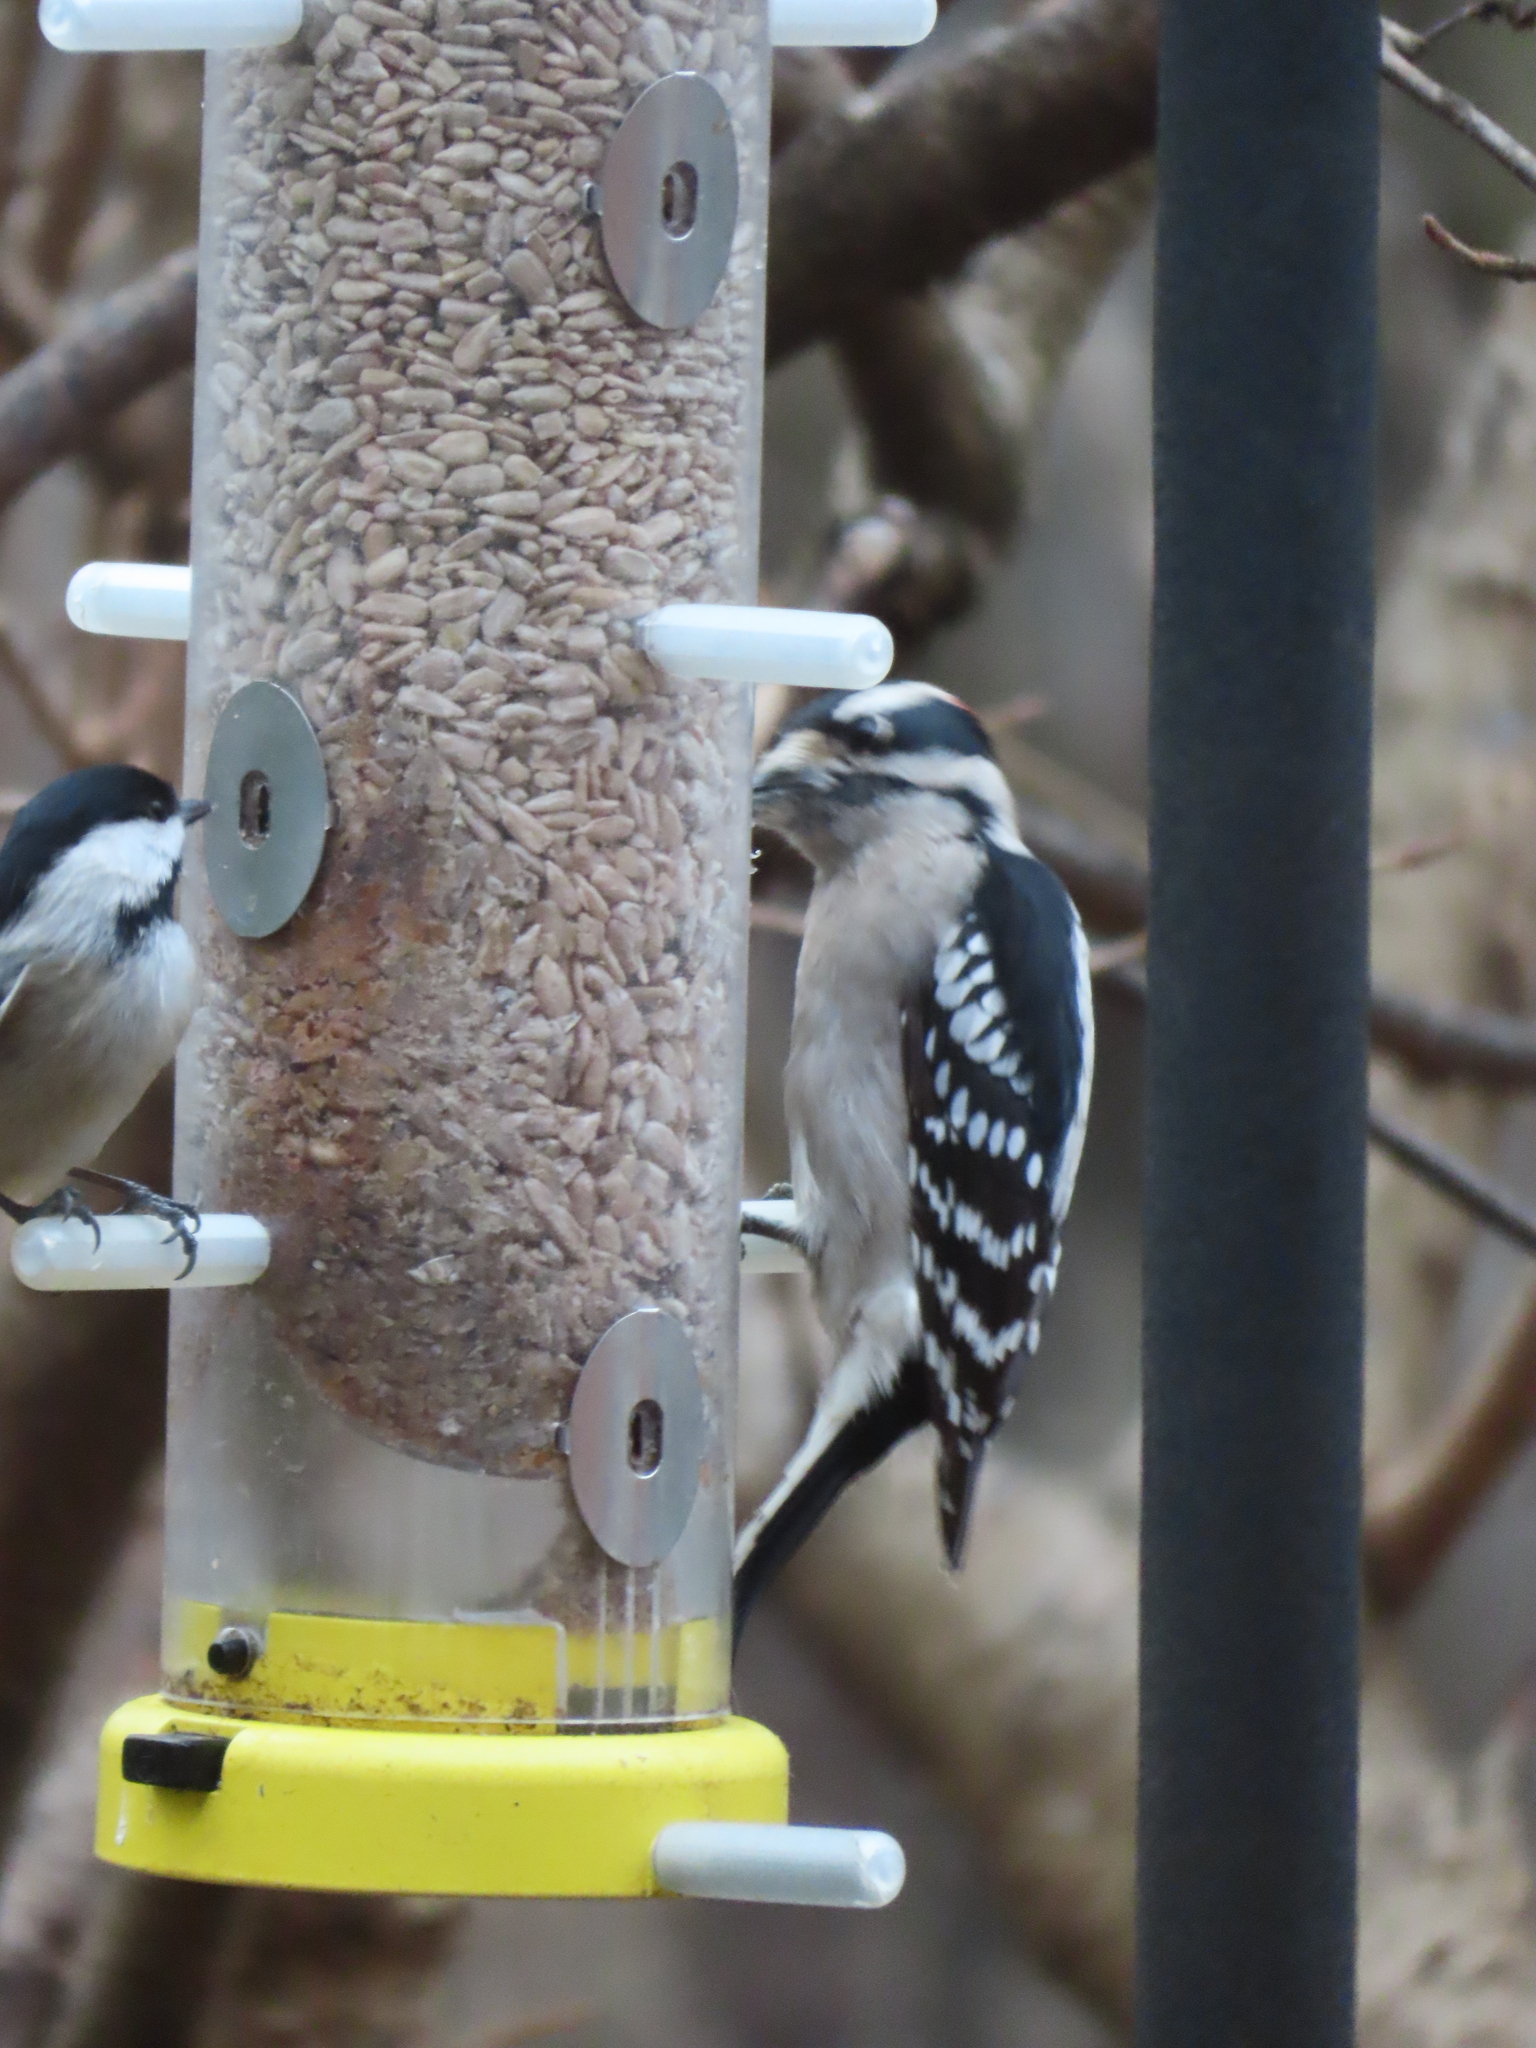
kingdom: Animalia
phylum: Chordata
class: Aves
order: Passeriformes
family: Paridae
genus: Poecile
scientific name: Poecile carolinensis
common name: Carolina chickadee
